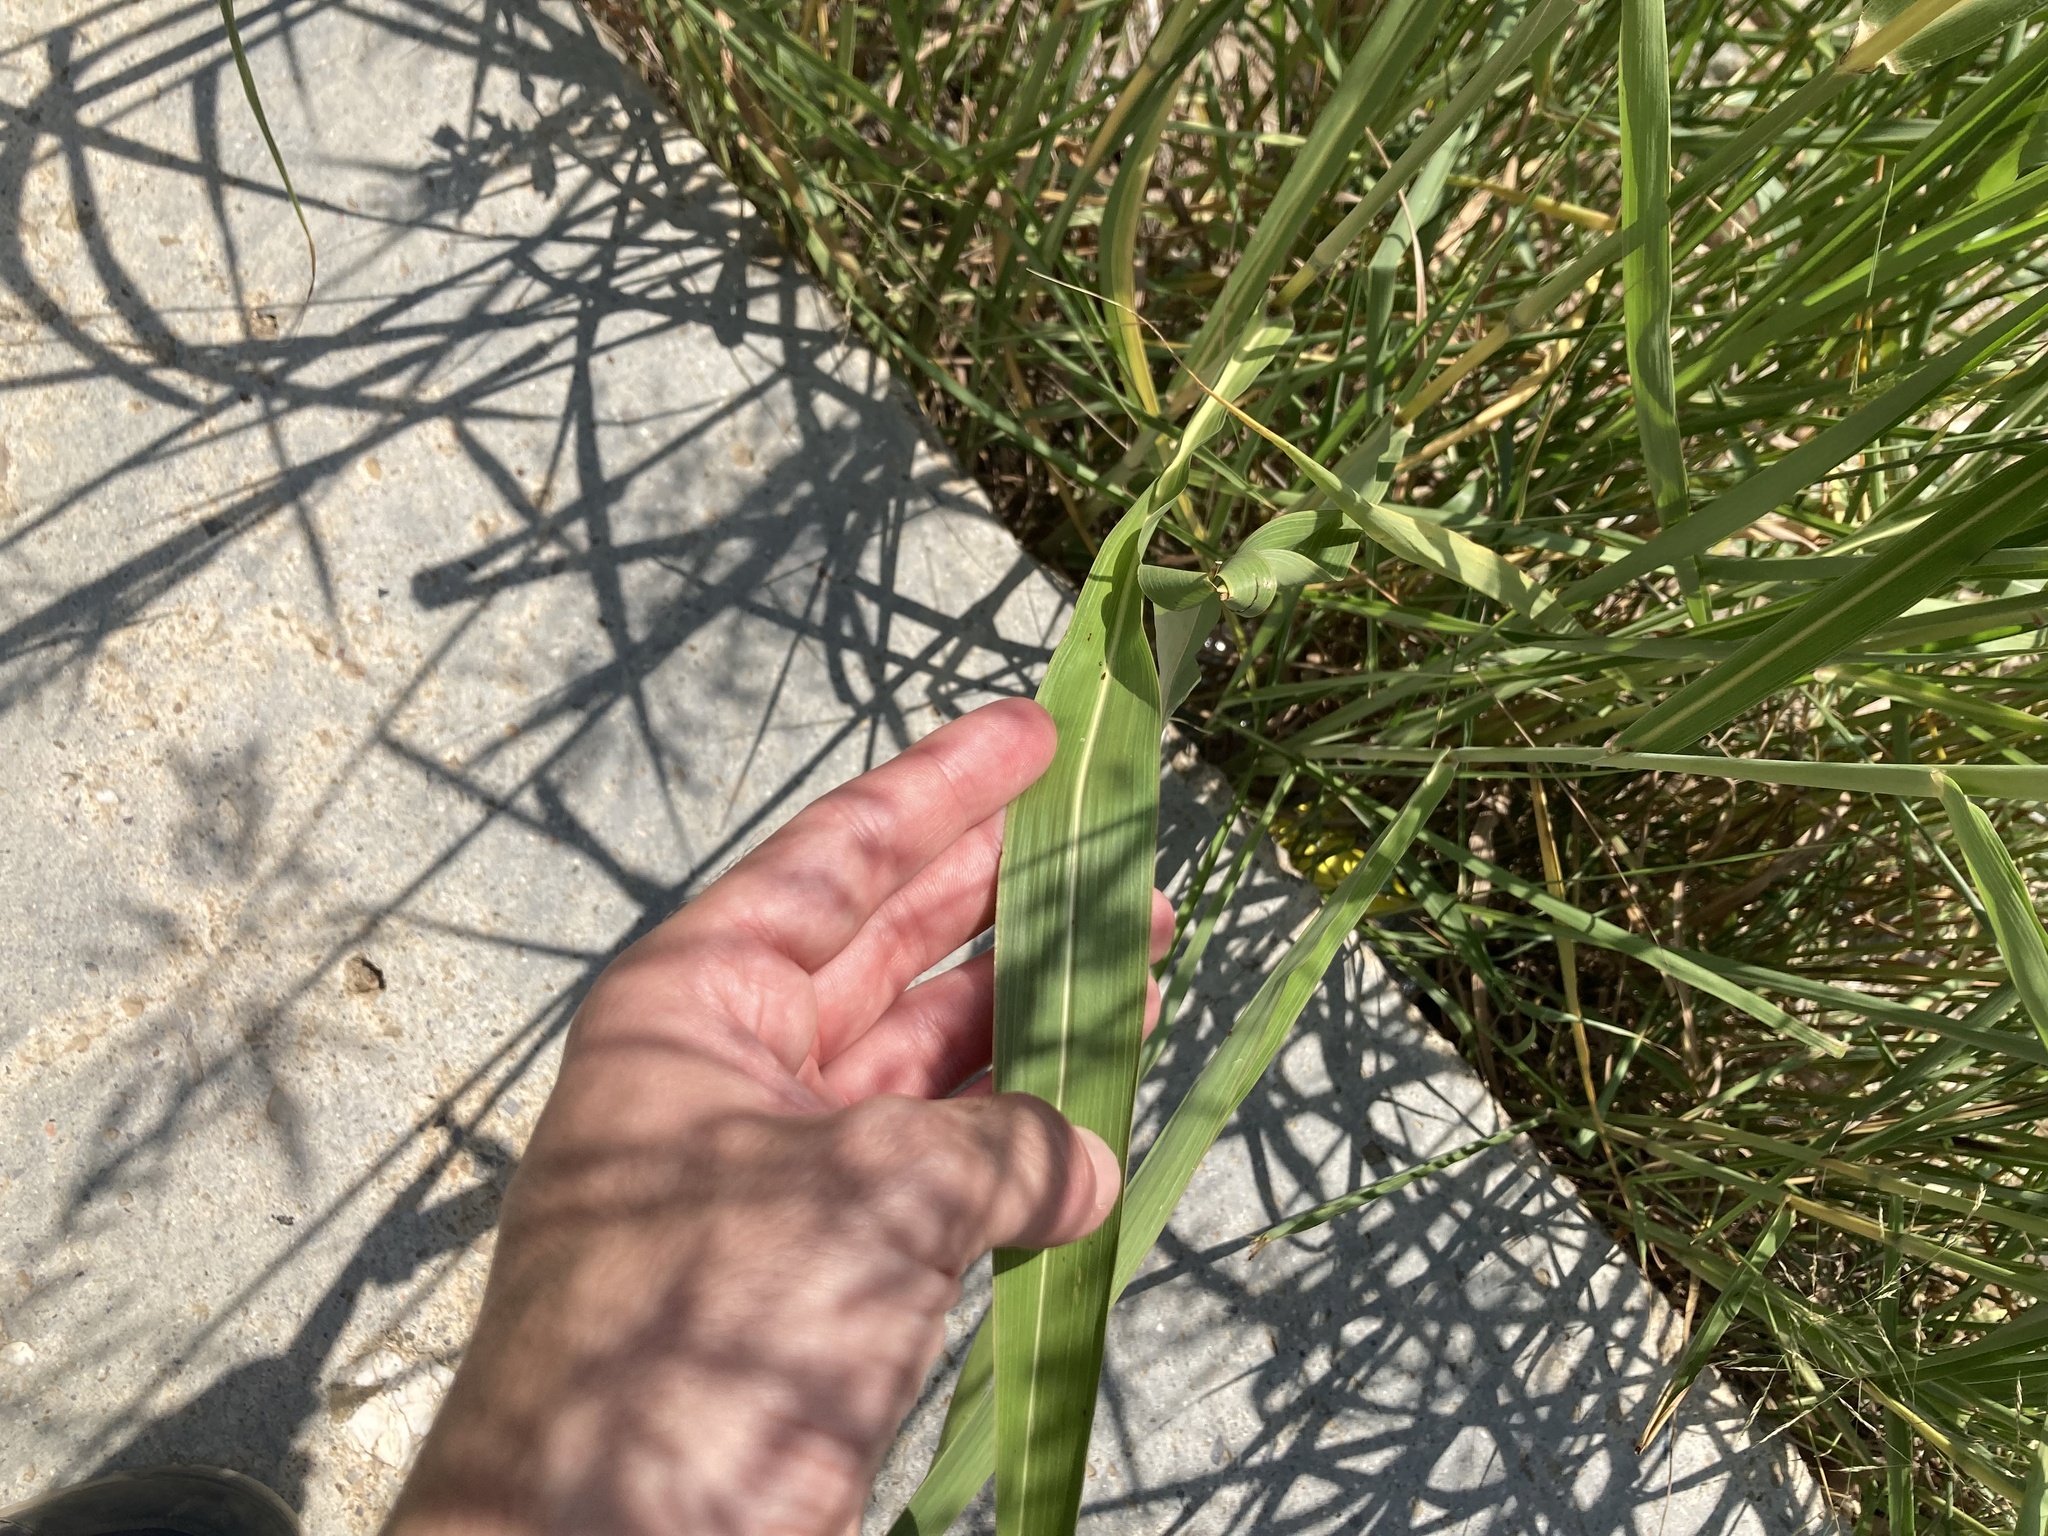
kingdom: Plantae
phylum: Tracheophyta
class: Liliopsida
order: Poales
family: Poaceae
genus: Sorghum
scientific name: Sorghum halepense
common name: Johnson-grass
